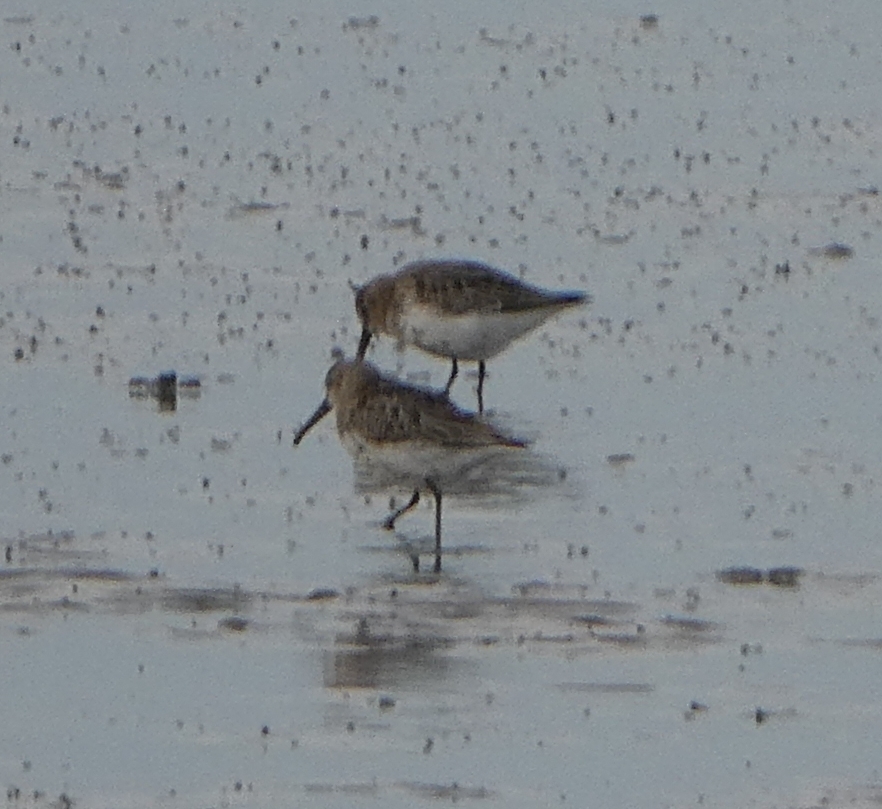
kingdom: Animalia
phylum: Chordata
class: Aves
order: Charadriiformes
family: Scolopacidae
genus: Calidris
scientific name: Calidris alpina
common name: Dunlin
